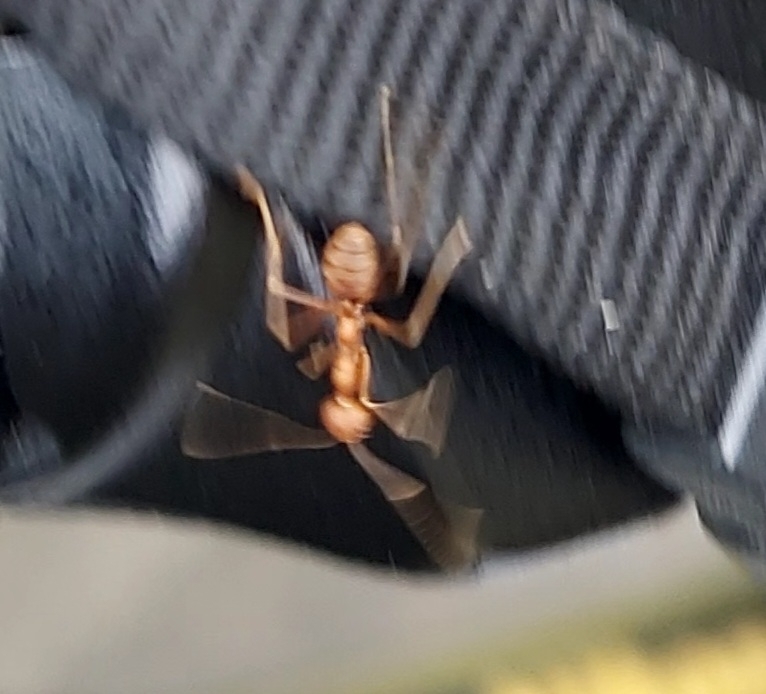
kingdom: Animalia
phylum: Arthropoda
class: Insecta
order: Hymenoptera
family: Formicidae
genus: Oecophylla
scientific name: Oecophylla smaragdina
